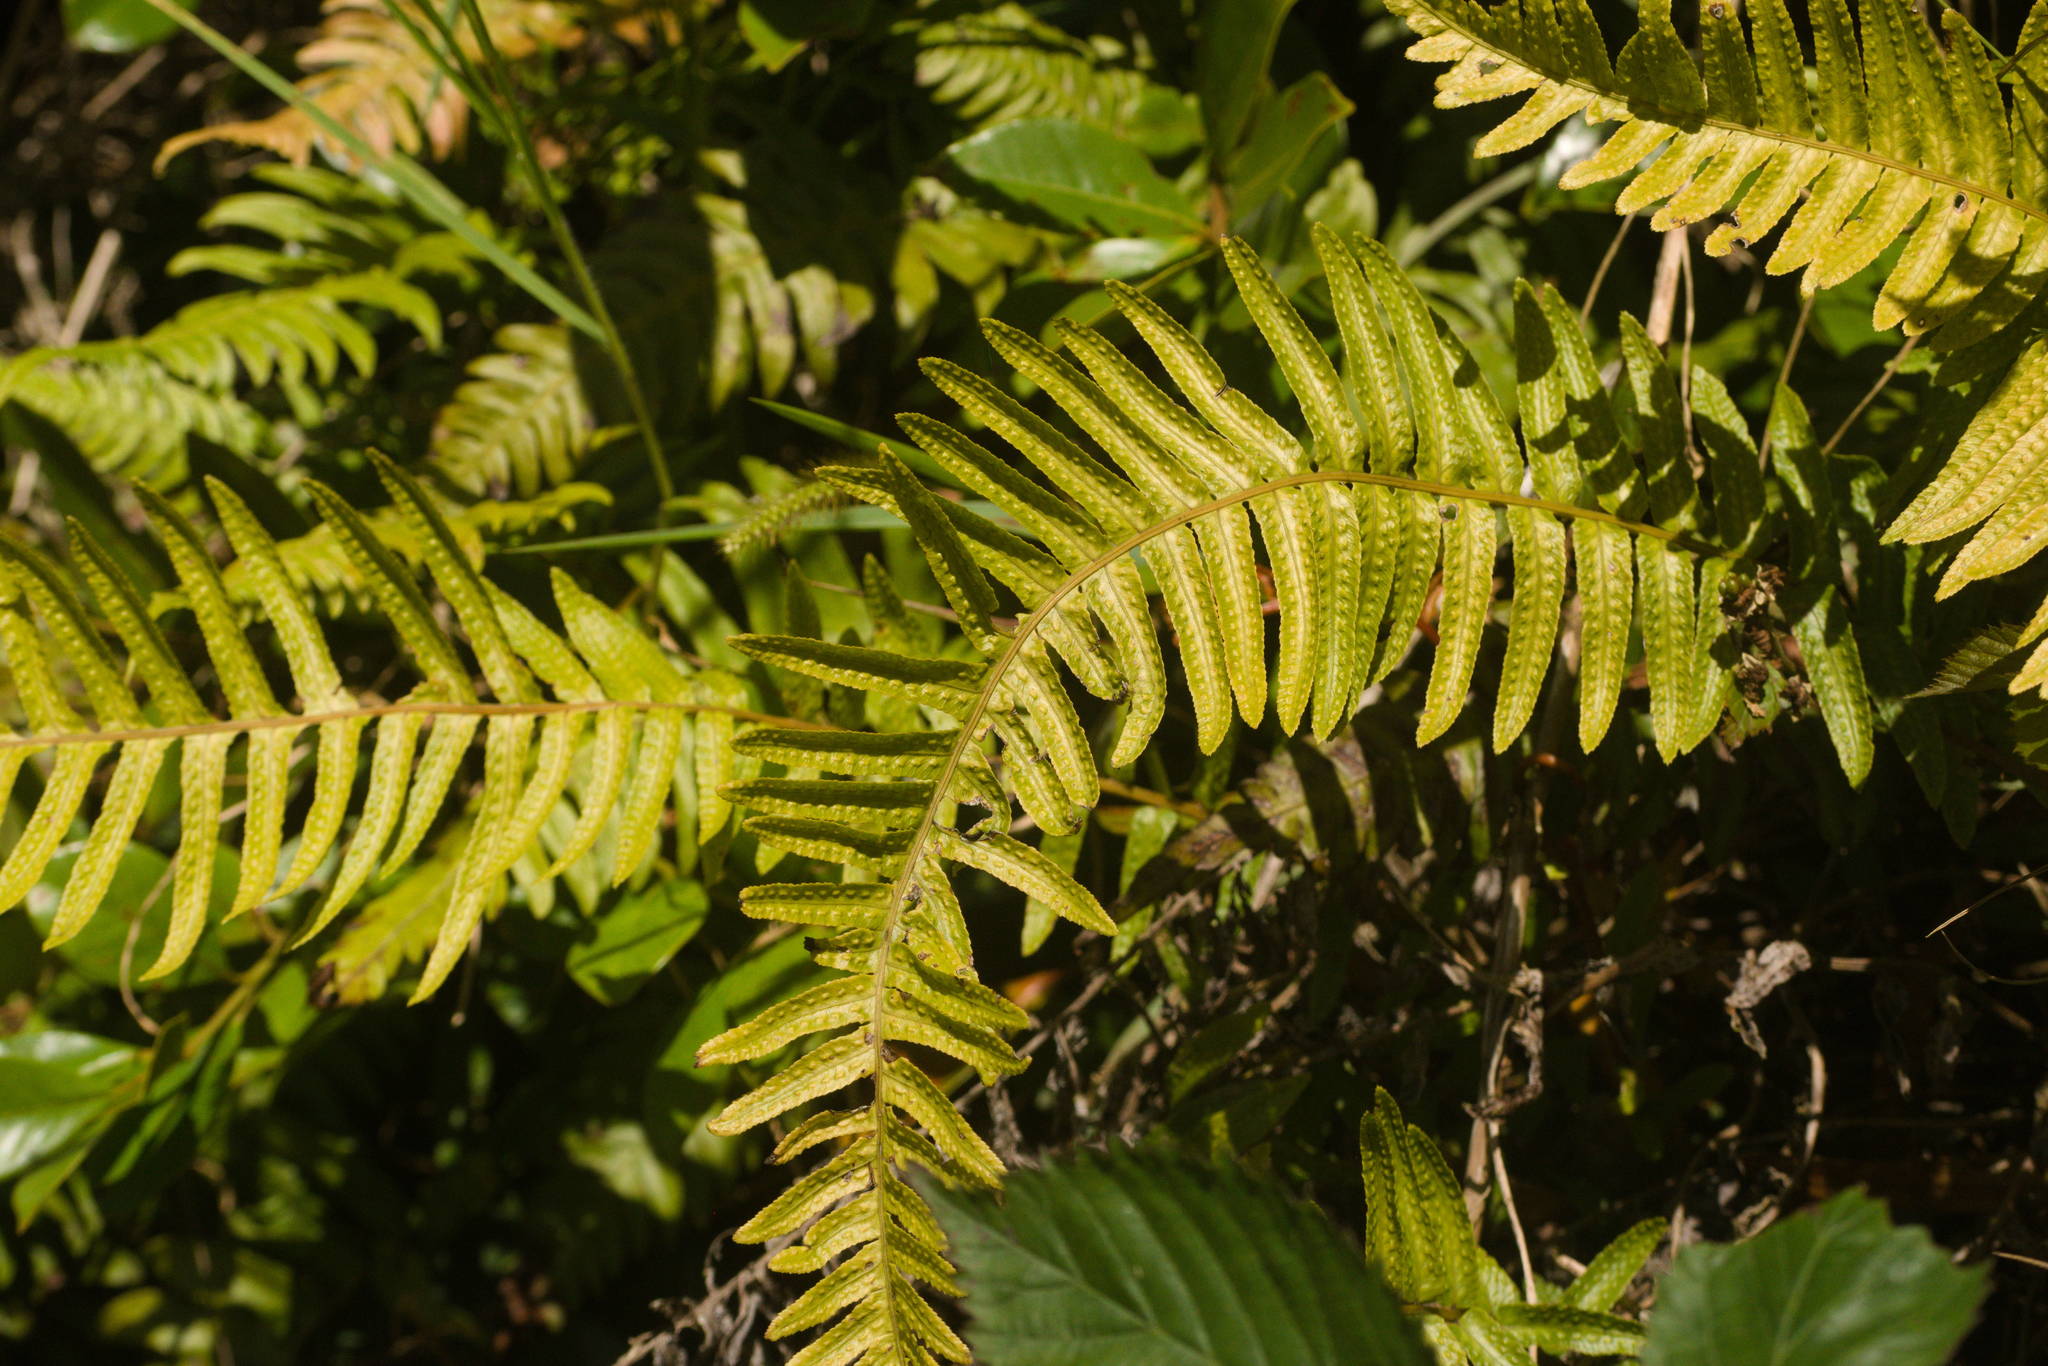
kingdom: Plantae
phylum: Tracheophyta
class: Polypodiopsida
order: Polypodiales
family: Blechnaceae
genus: Doodia
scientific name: Doodia kunthiana
